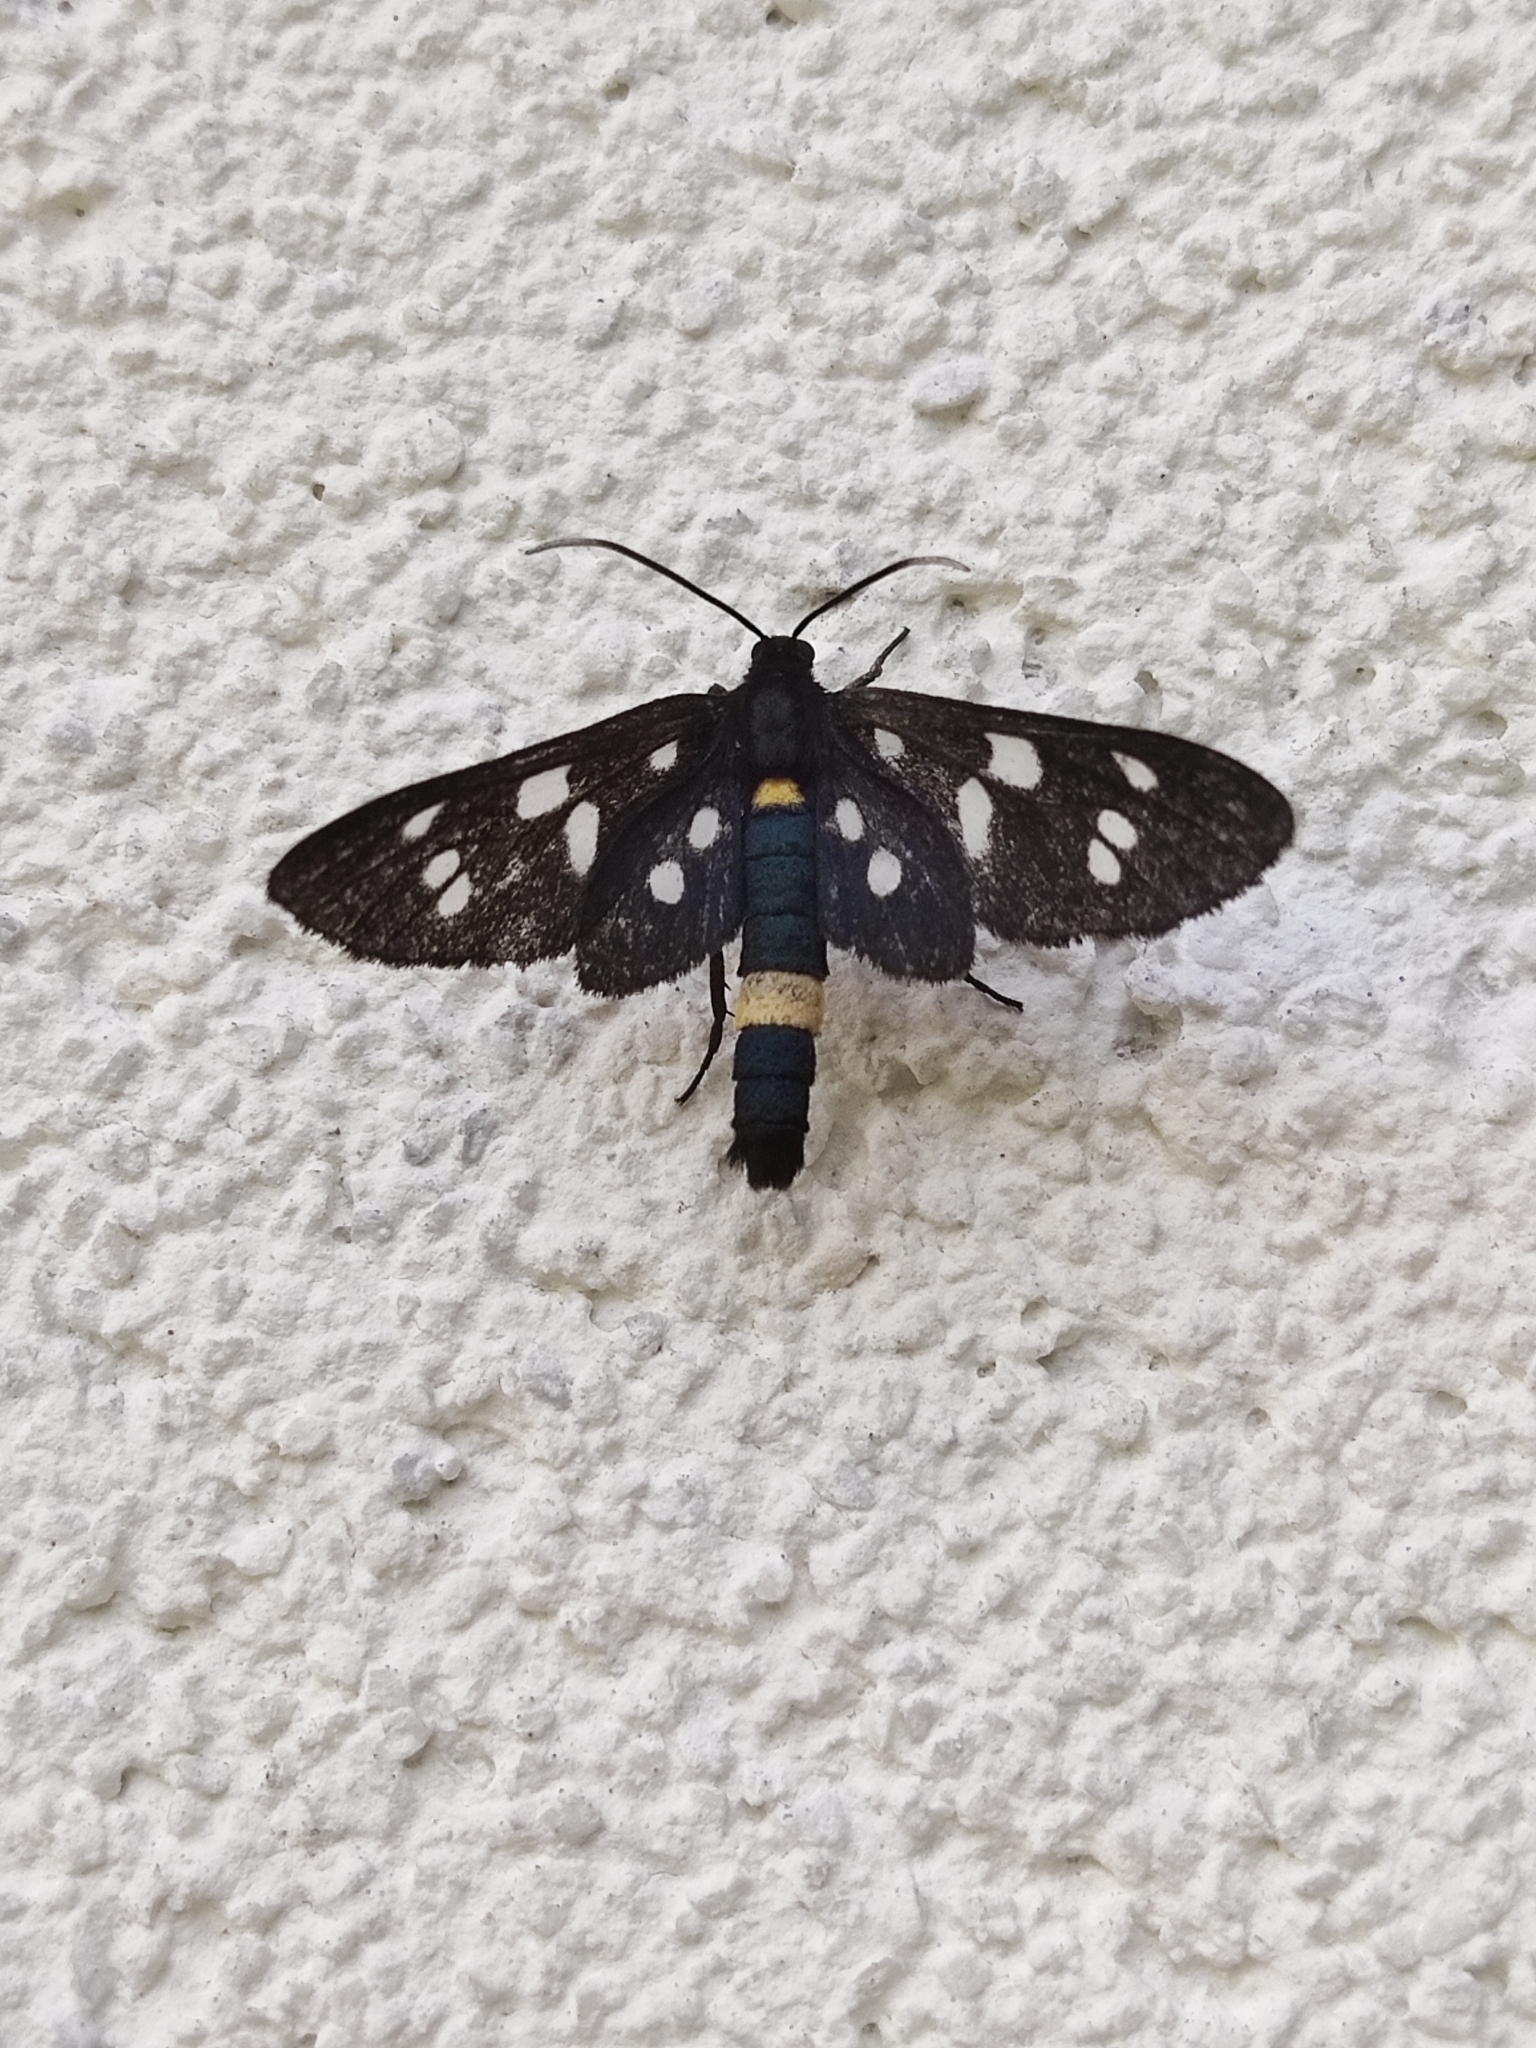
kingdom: Animalia
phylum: Arthropoda
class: Insecta
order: Lepidoptera
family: Erebidae
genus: Amata
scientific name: Amata phegea
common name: Nine-spotted
